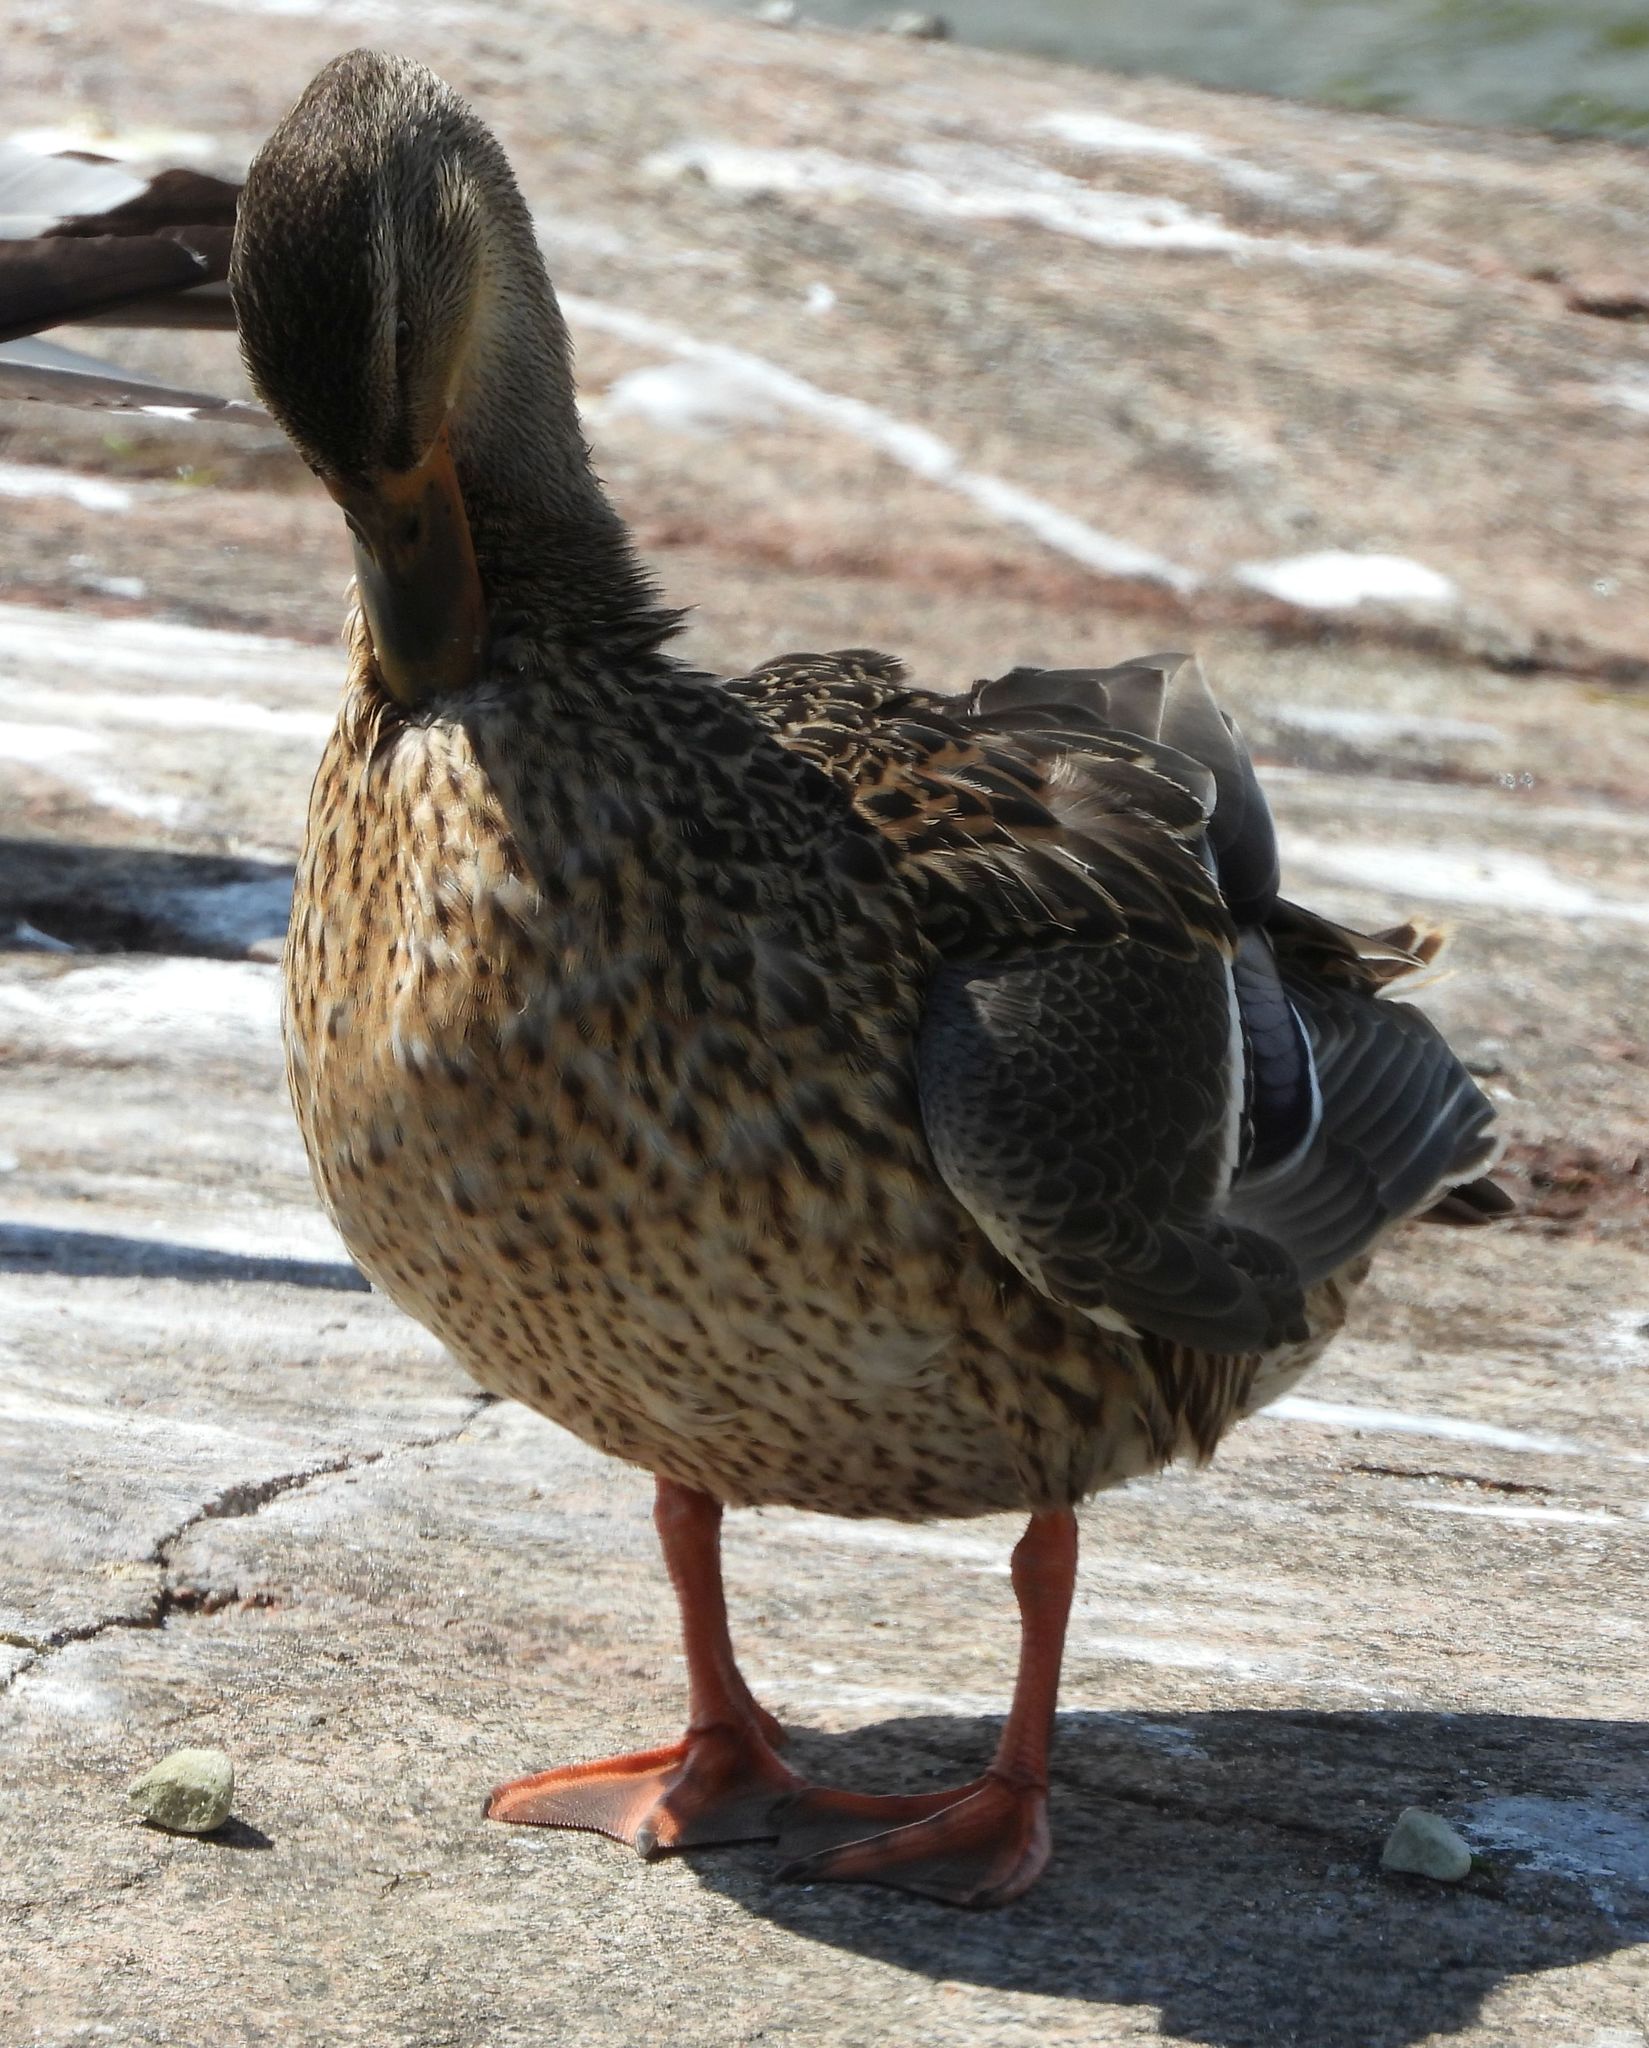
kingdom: Animalia
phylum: Chordata
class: Aves
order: Anseriformes
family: Anatidae
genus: Anas
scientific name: Anas platyrhynchos
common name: Mallard
